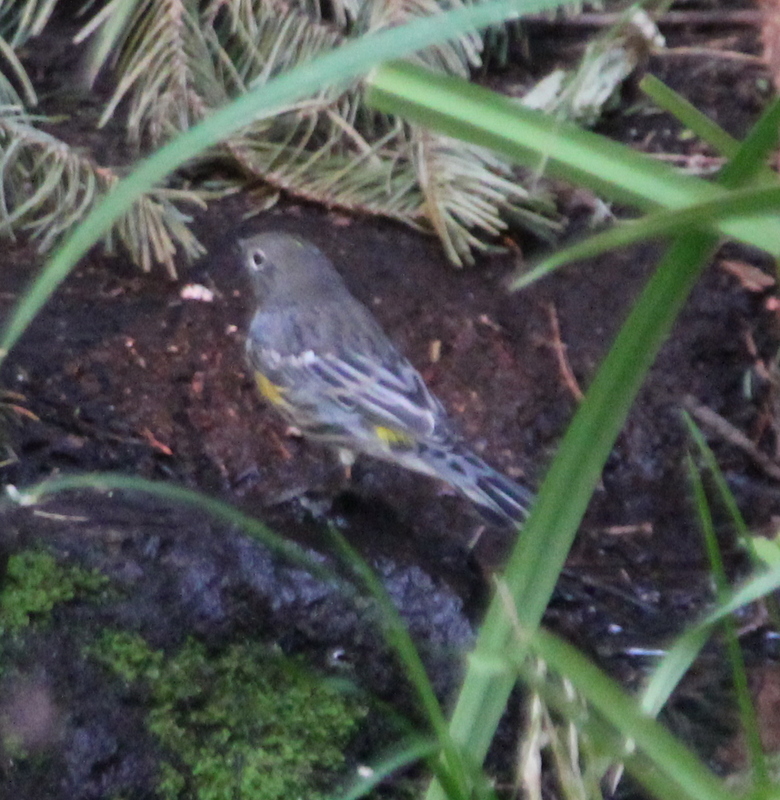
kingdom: Animalia
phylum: Chordata
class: Aves
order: Passeriformes
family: Parulidae
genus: Setophaga
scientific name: Setophaga auduboni
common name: Audubon's warbler
